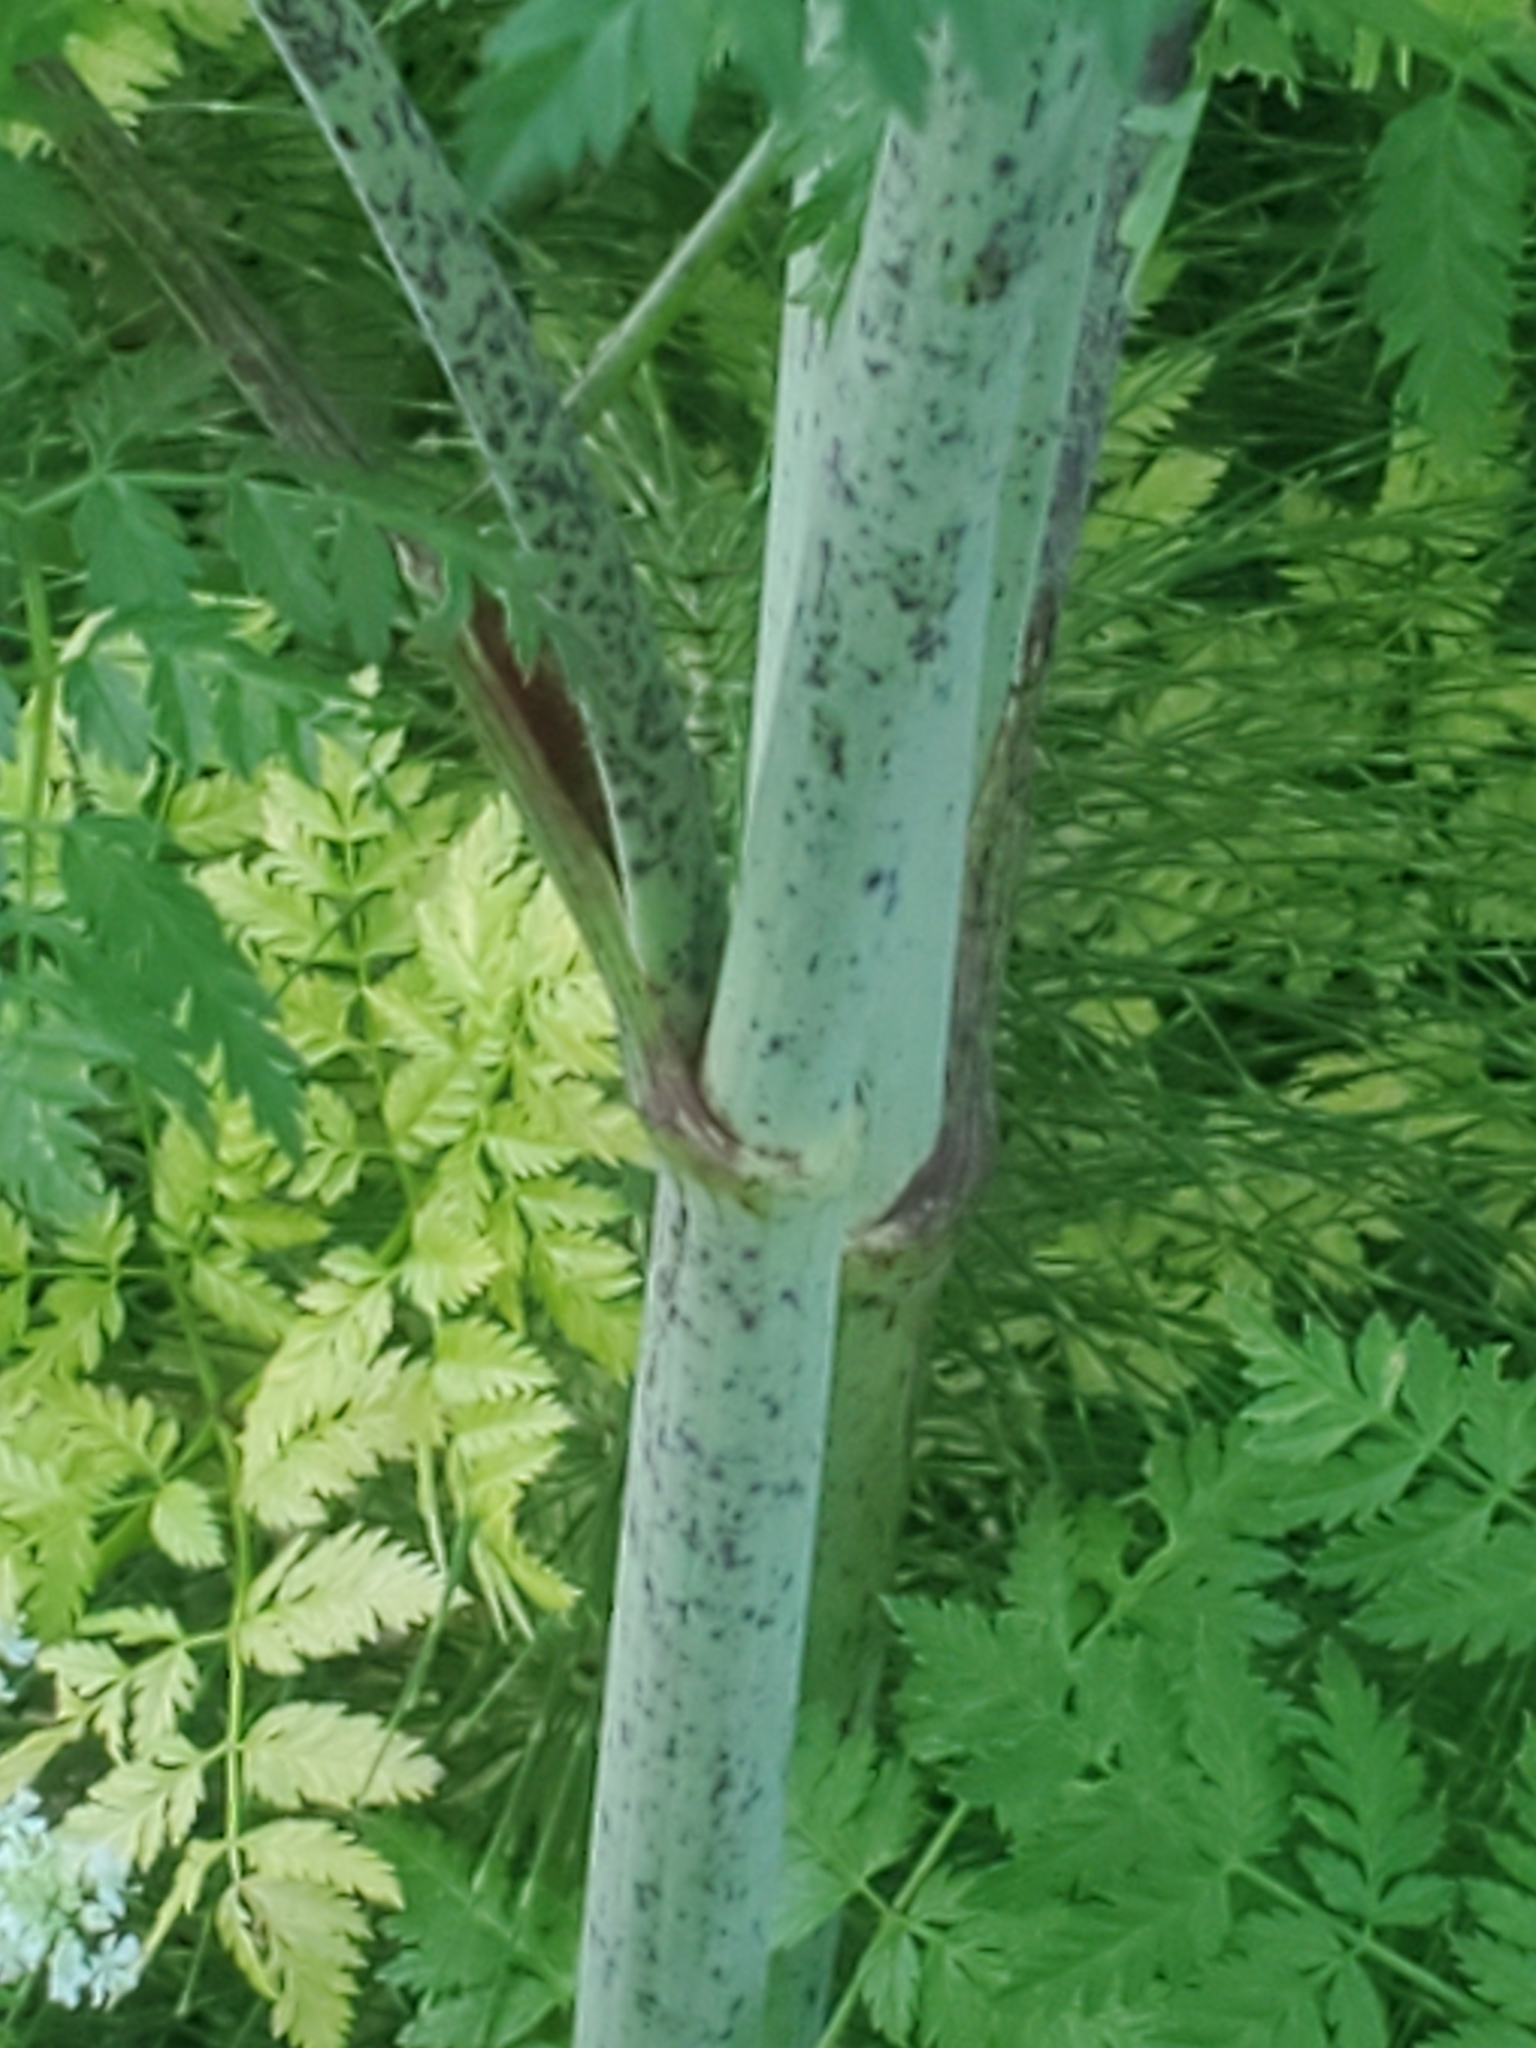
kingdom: Plantae
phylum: Tracheophyta
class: Magnoliopsida
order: Apiales
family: Apiaceae
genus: Conium
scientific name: Conium maculatum
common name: Hemlock
